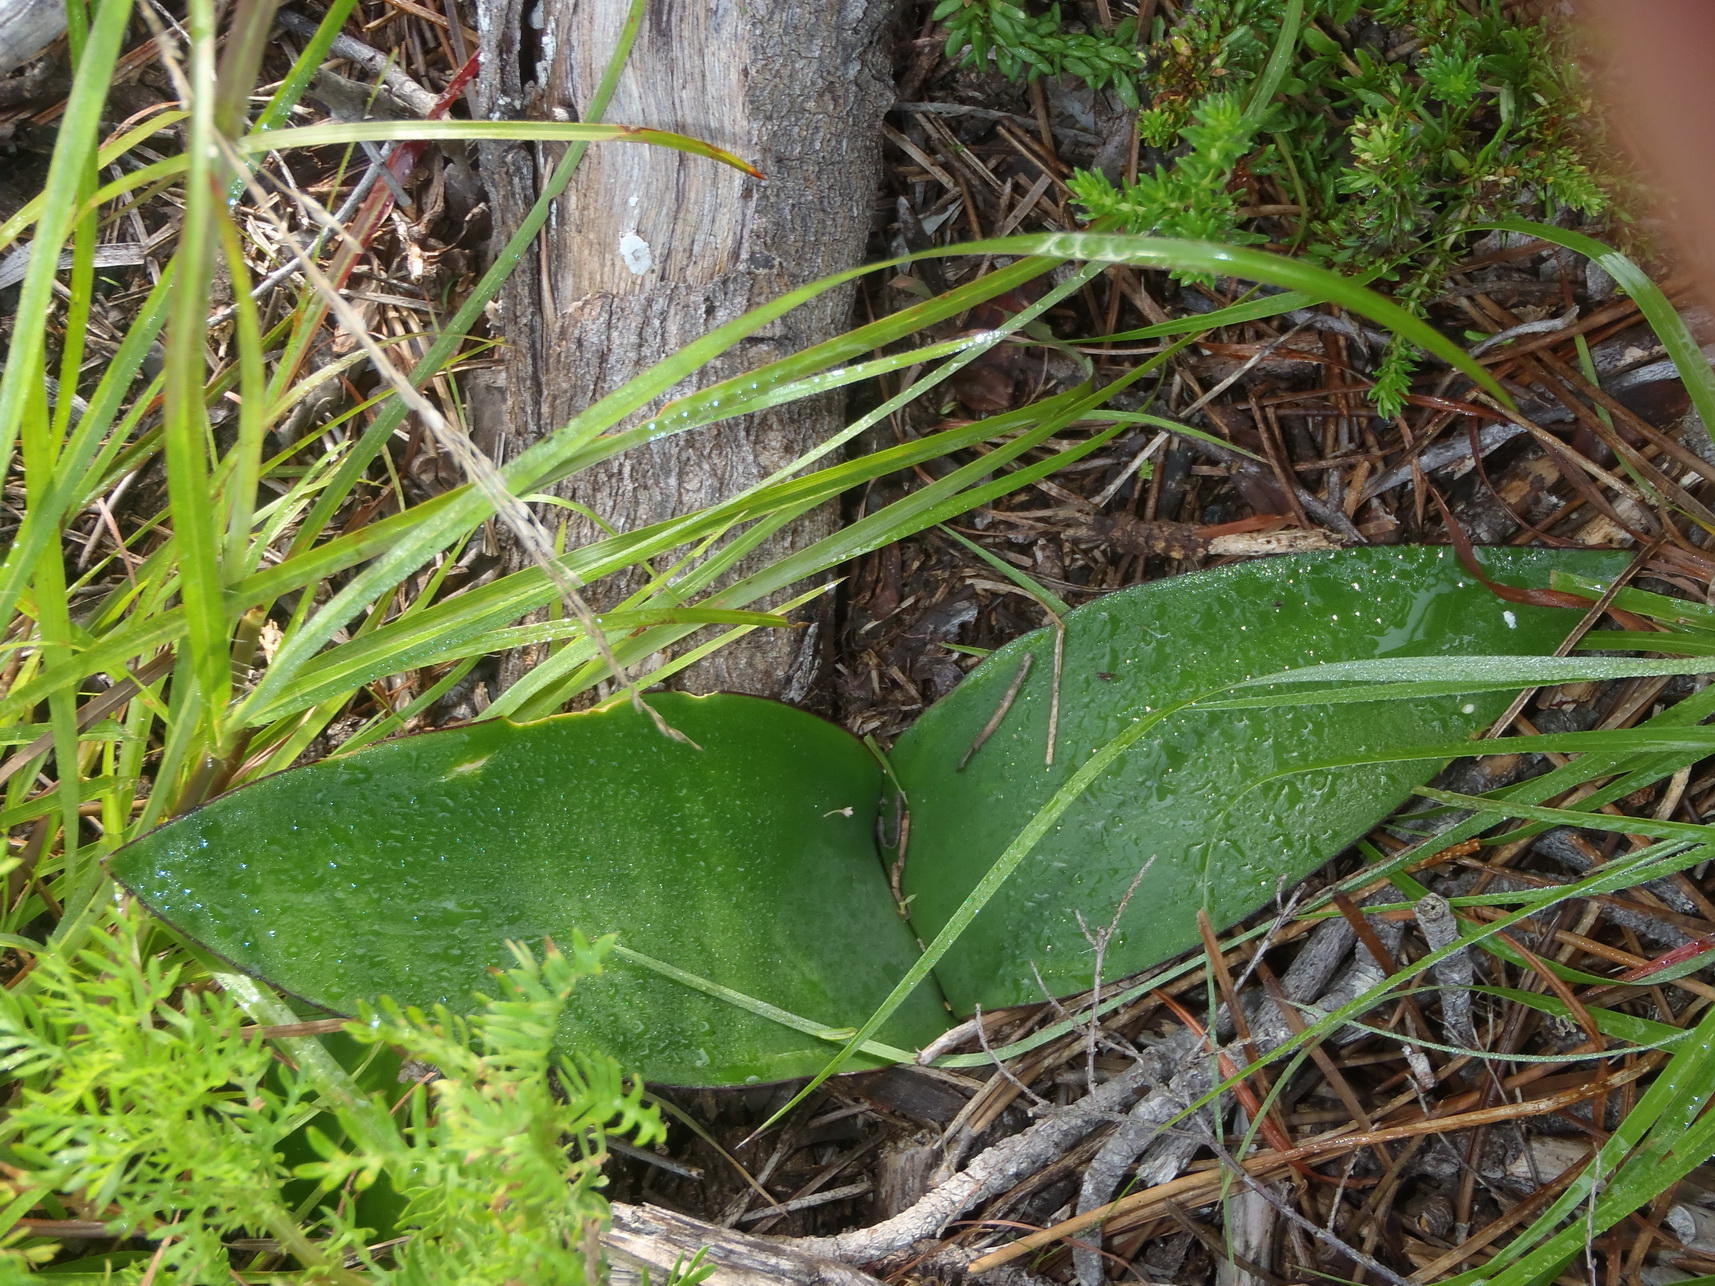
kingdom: Plantae
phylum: Tracheophyta
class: Liliopsida
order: Asparagales
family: Amaryllidaceae
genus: Brunsvigia
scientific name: Brunsvigia orientalis
